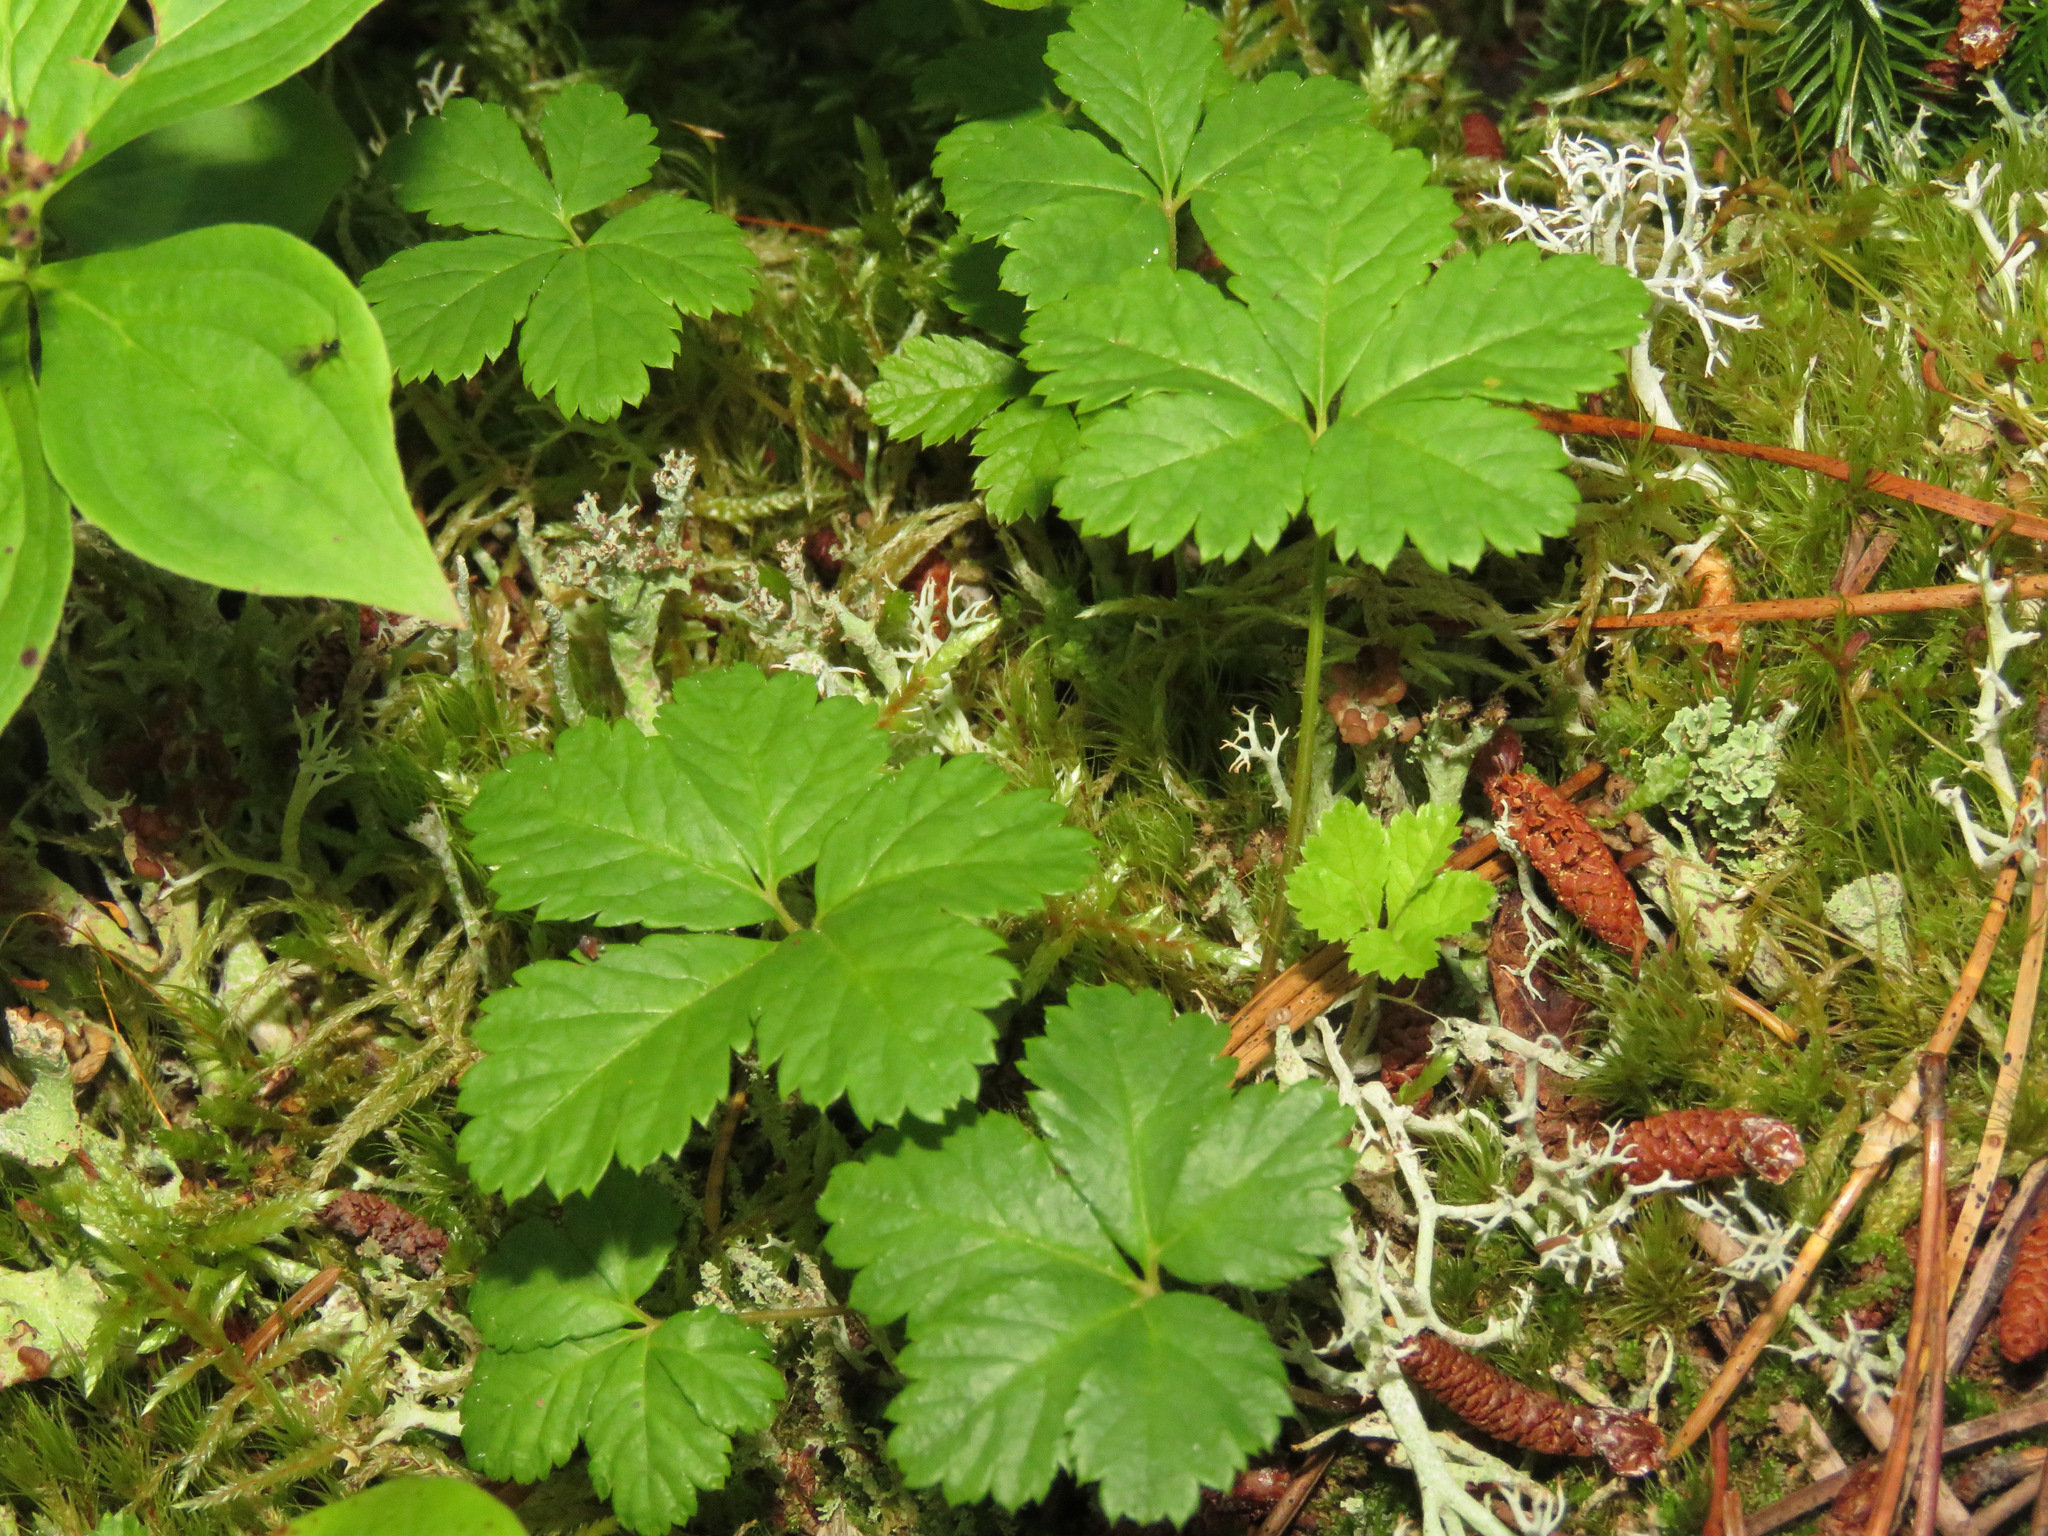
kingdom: Plantae
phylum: Tracheophyta
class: Magnoliopsida
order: Rosales
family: Rosaceae
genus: Rubus
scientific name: Rubus pedatus
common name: Creeping raspberry
